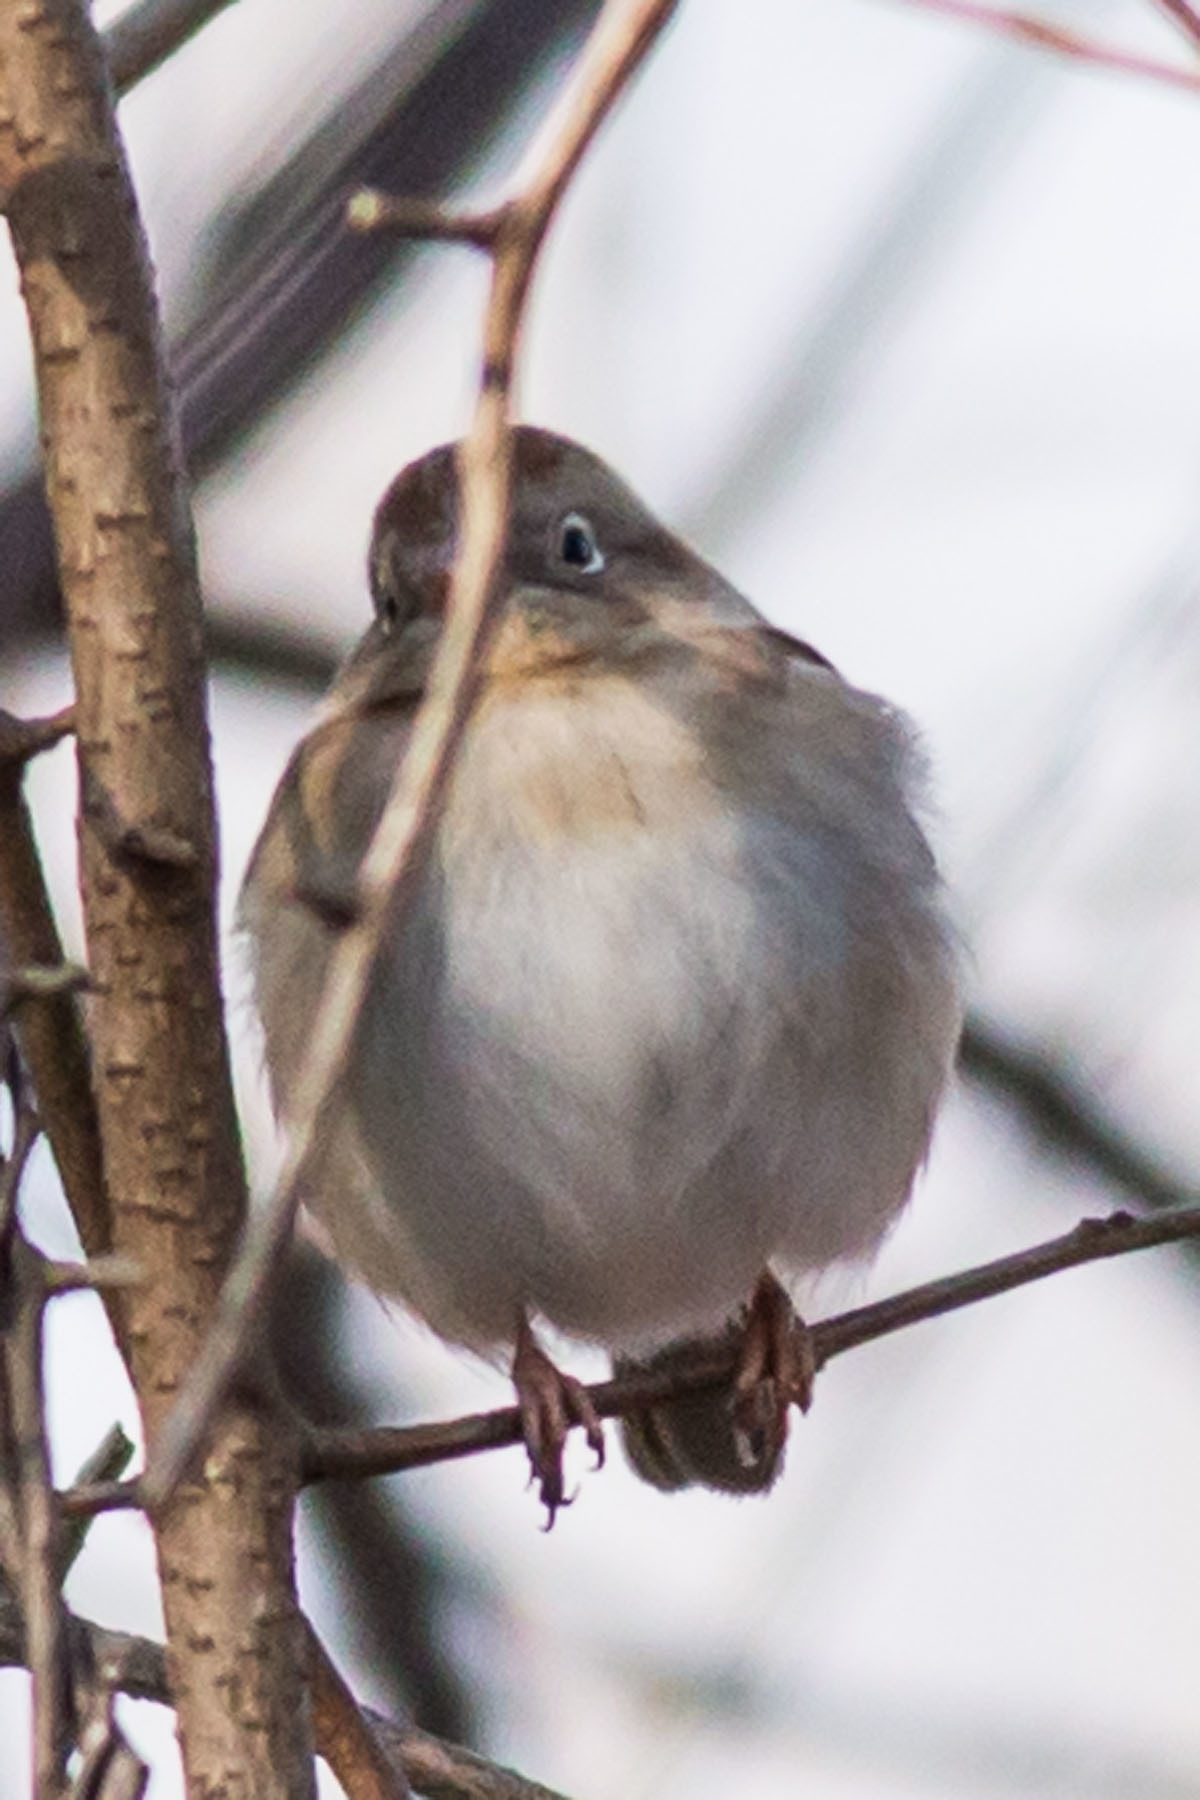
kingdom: Animalia
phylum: Chordata
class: Aves
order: Passeriformes
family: Passerellidae
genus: Spizella
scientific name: Spizella pusilla
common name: Field sparrow
